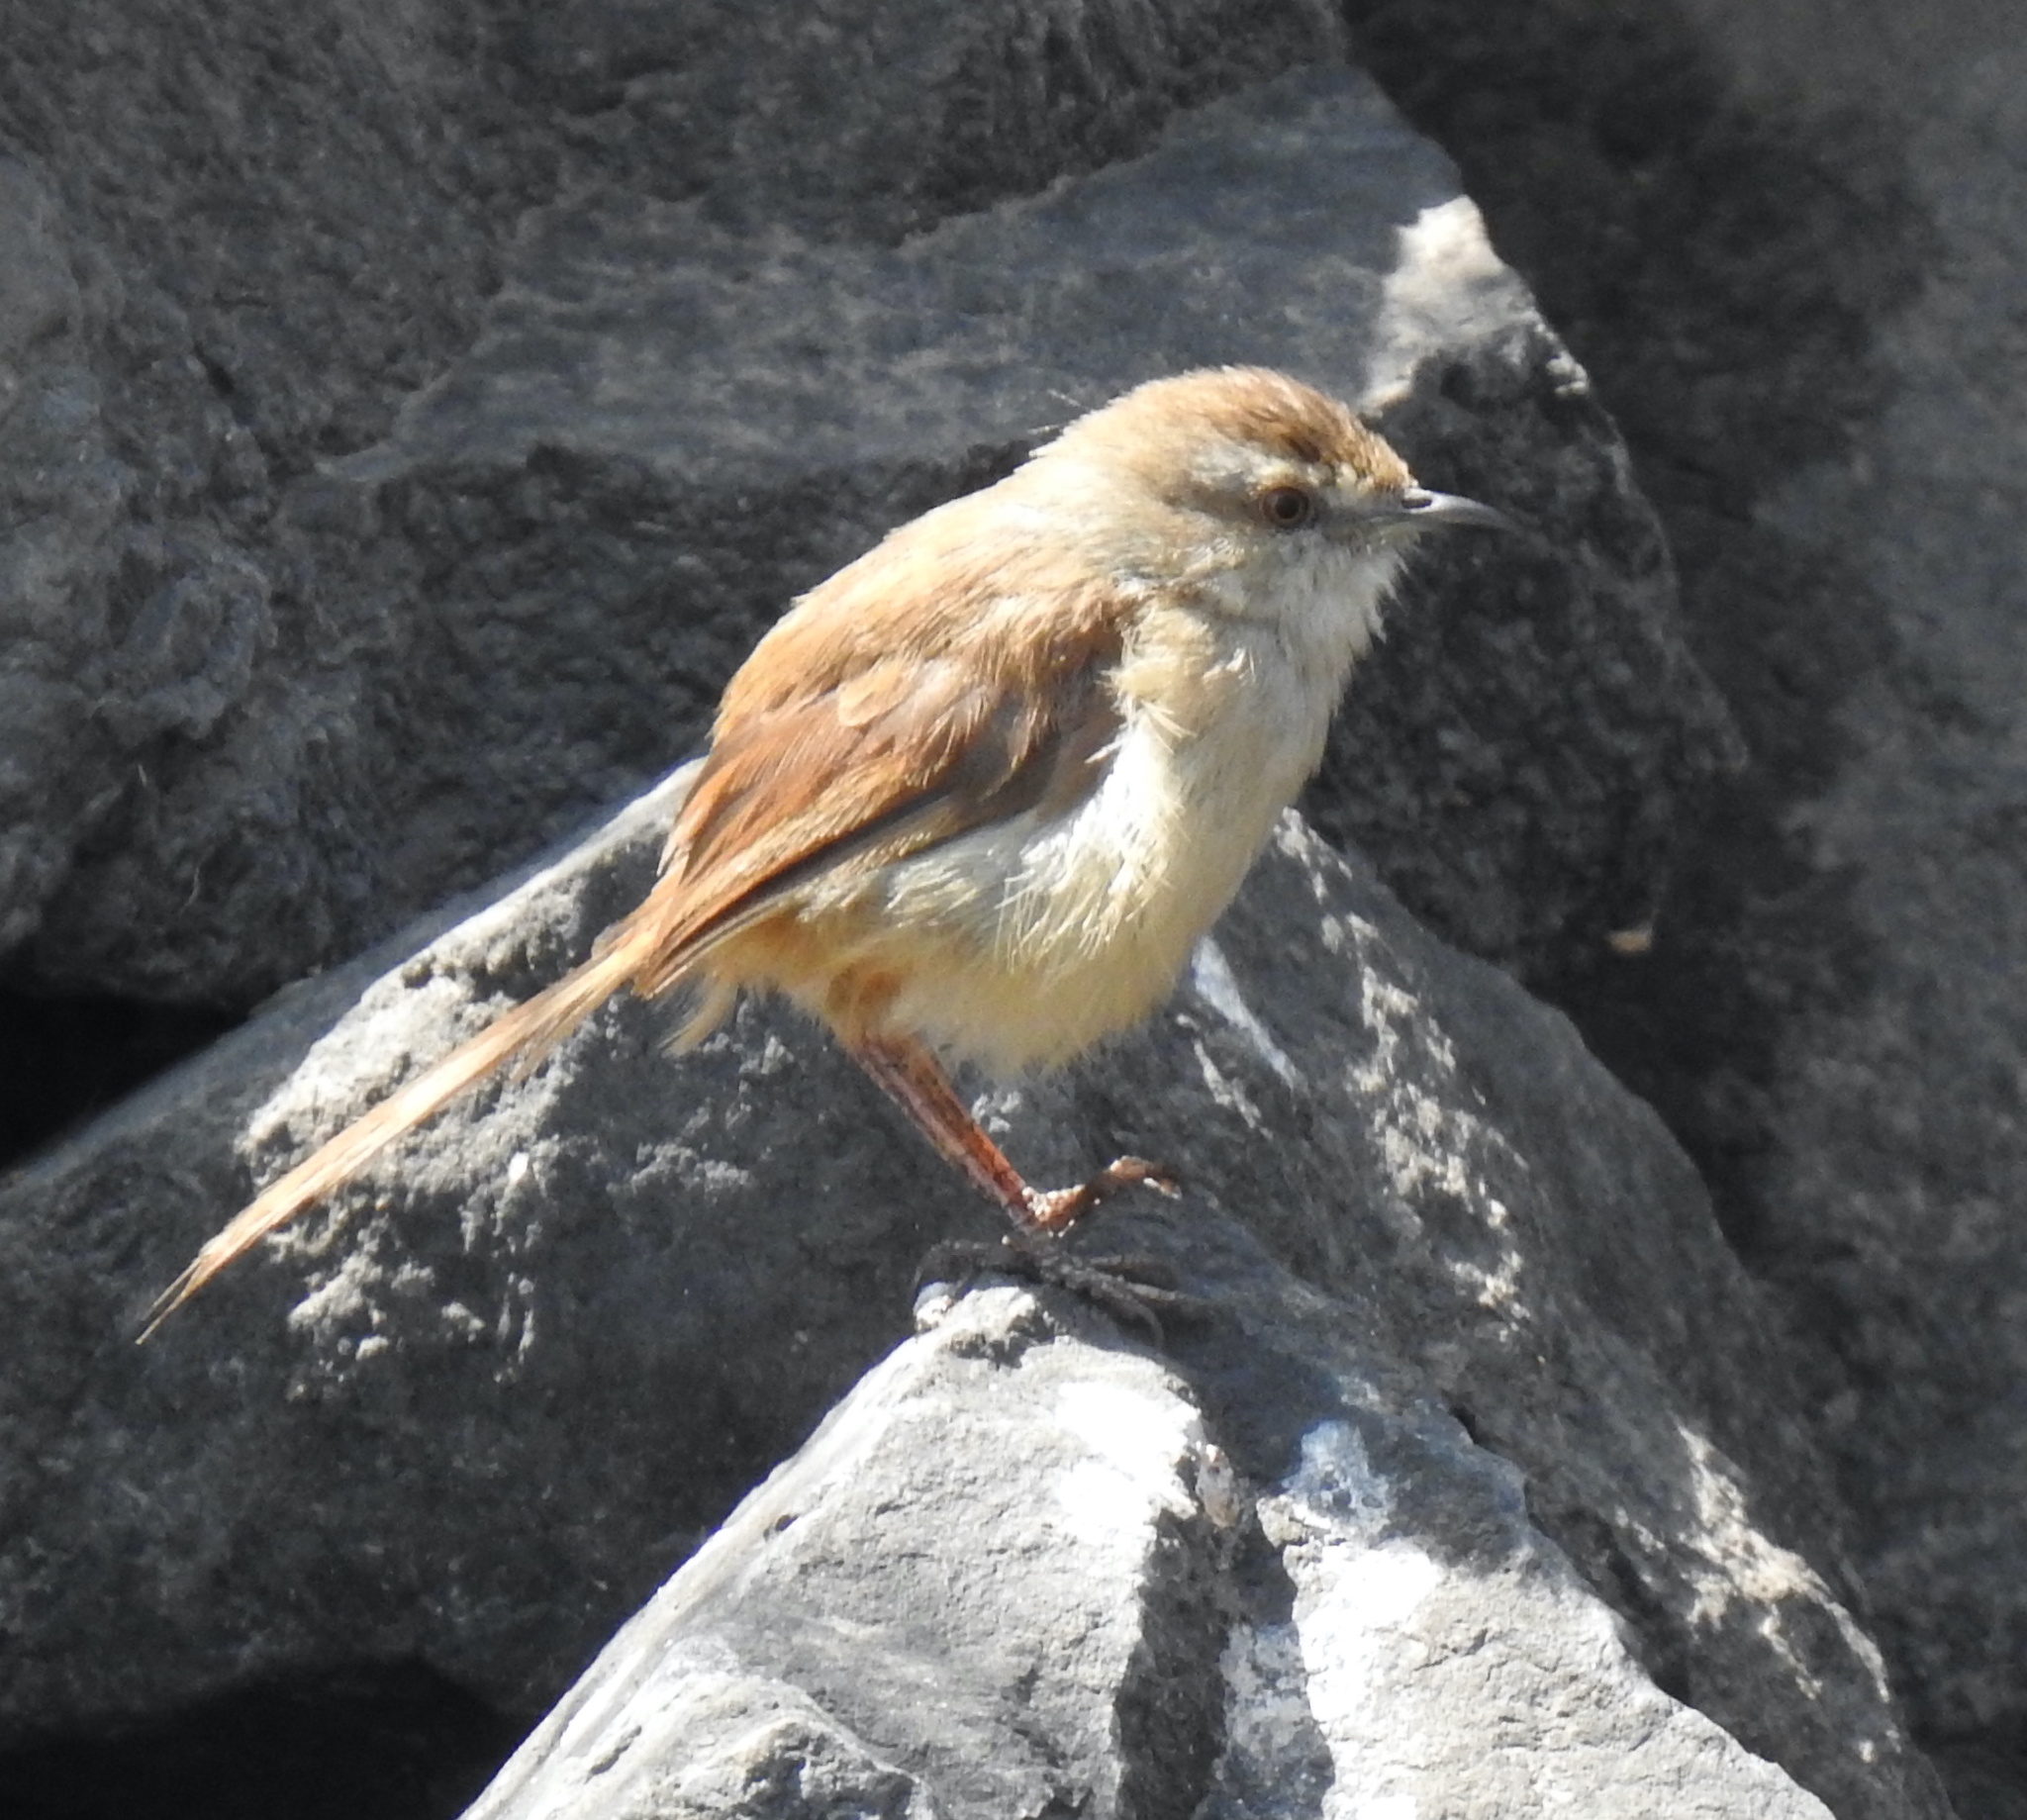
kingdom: Animalia
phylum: Chordata
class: Aves
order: Passeriformes
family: Cisticolidae
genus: Prinia
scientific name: Prinia subflava
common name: Tawny-flanked prinia
